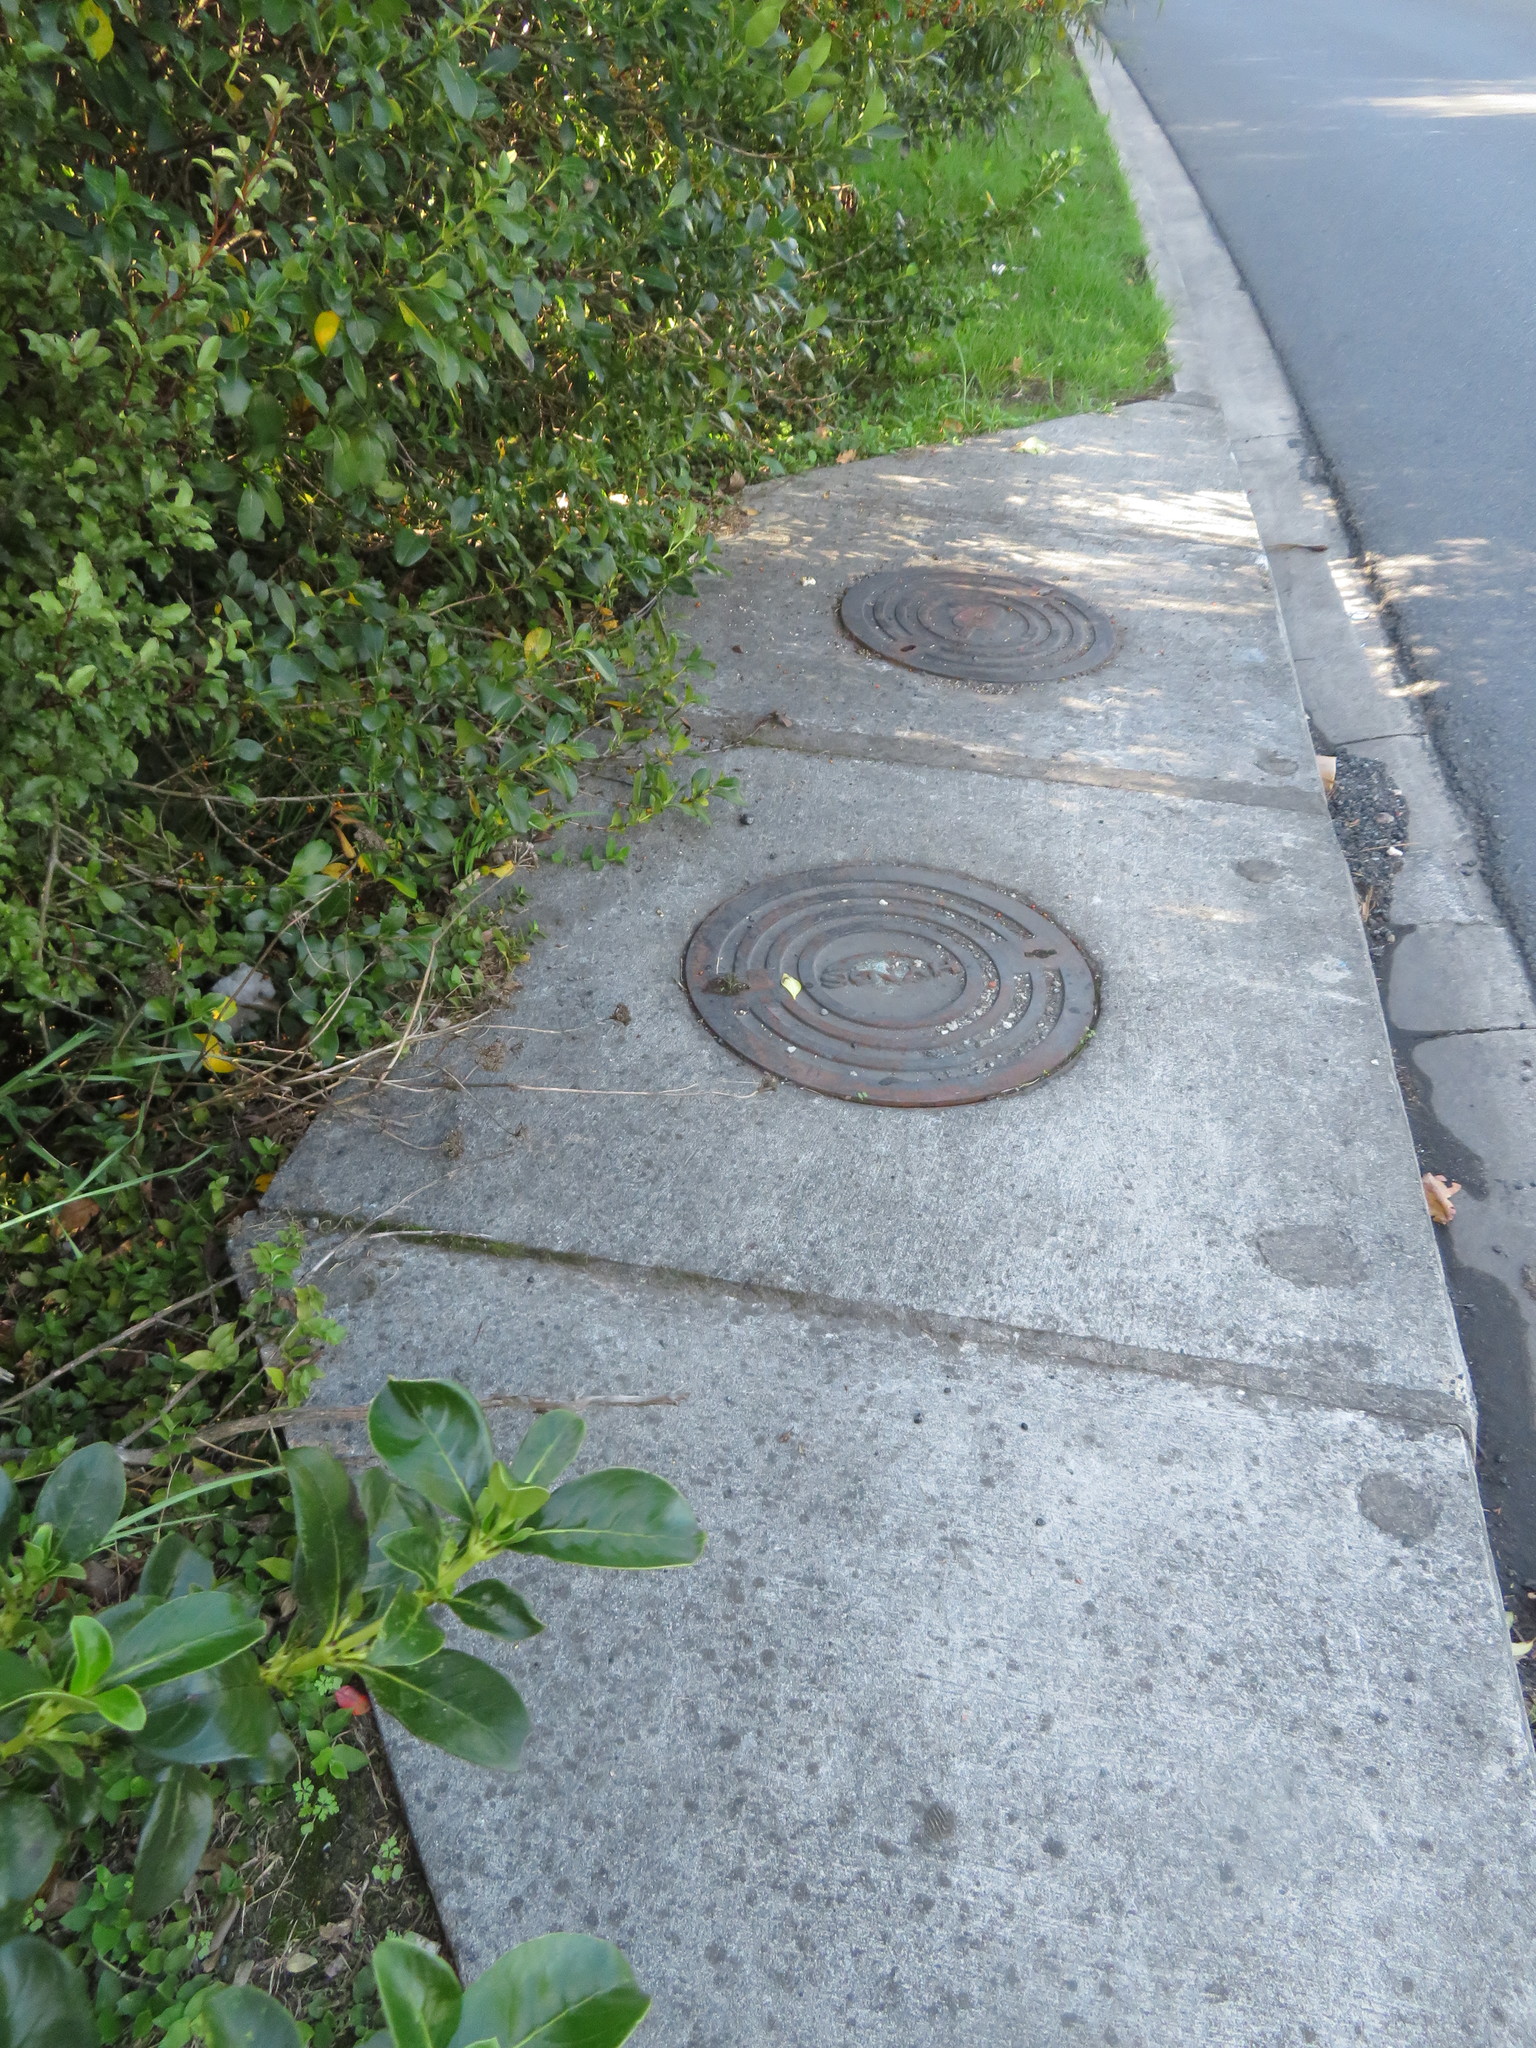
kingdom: Plantae
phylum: Tracheophyta
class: Magnoliopsida
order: Gentianales
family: Rubiaceae
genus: Coprosma
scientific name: Coprosma robusta
